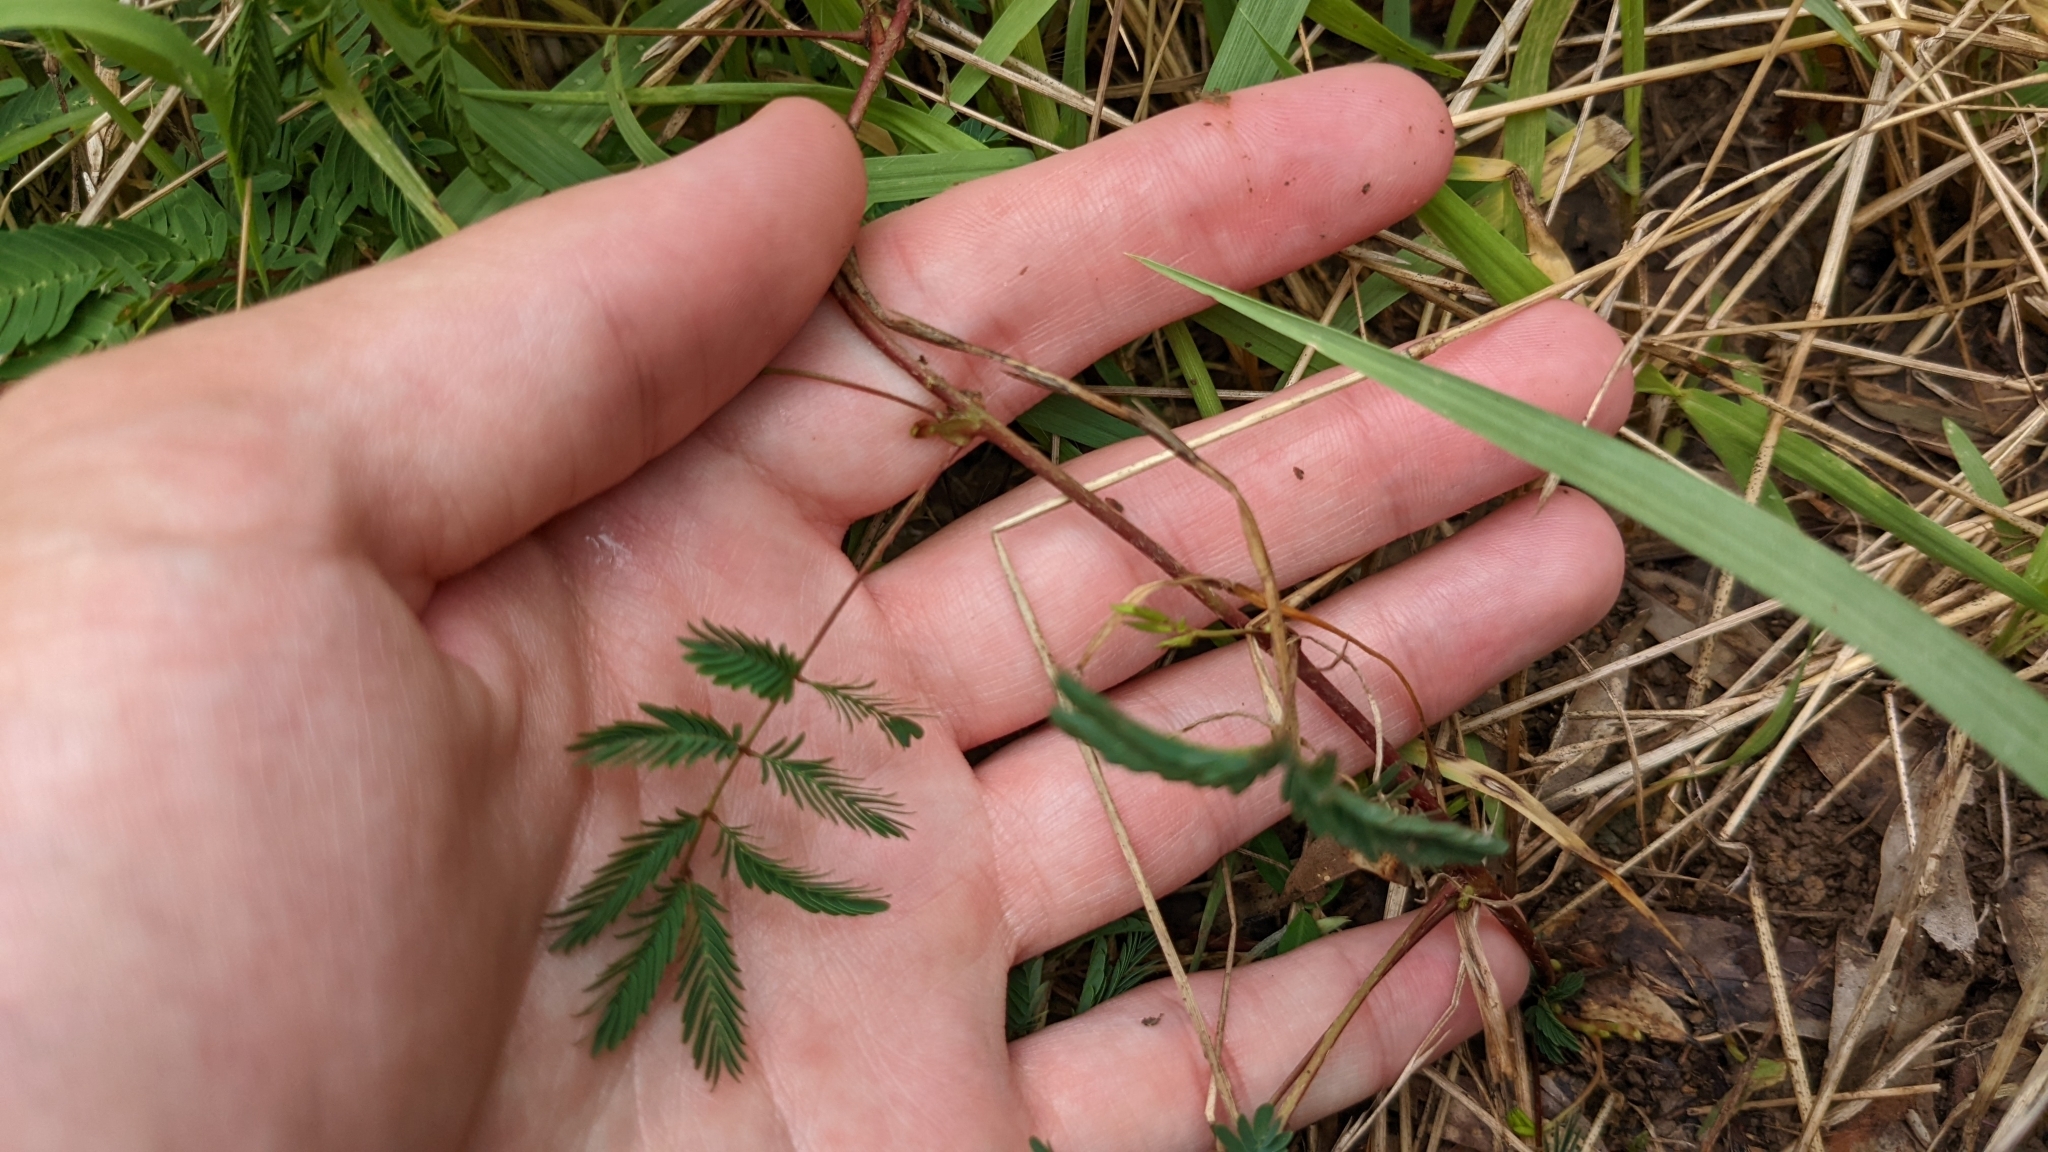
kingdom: Plantae
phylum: Tracheophyta
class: Magnoliopsida
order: Fabales
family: Fabaceae
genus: Mimosa
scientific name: Mimosa strigillosa
